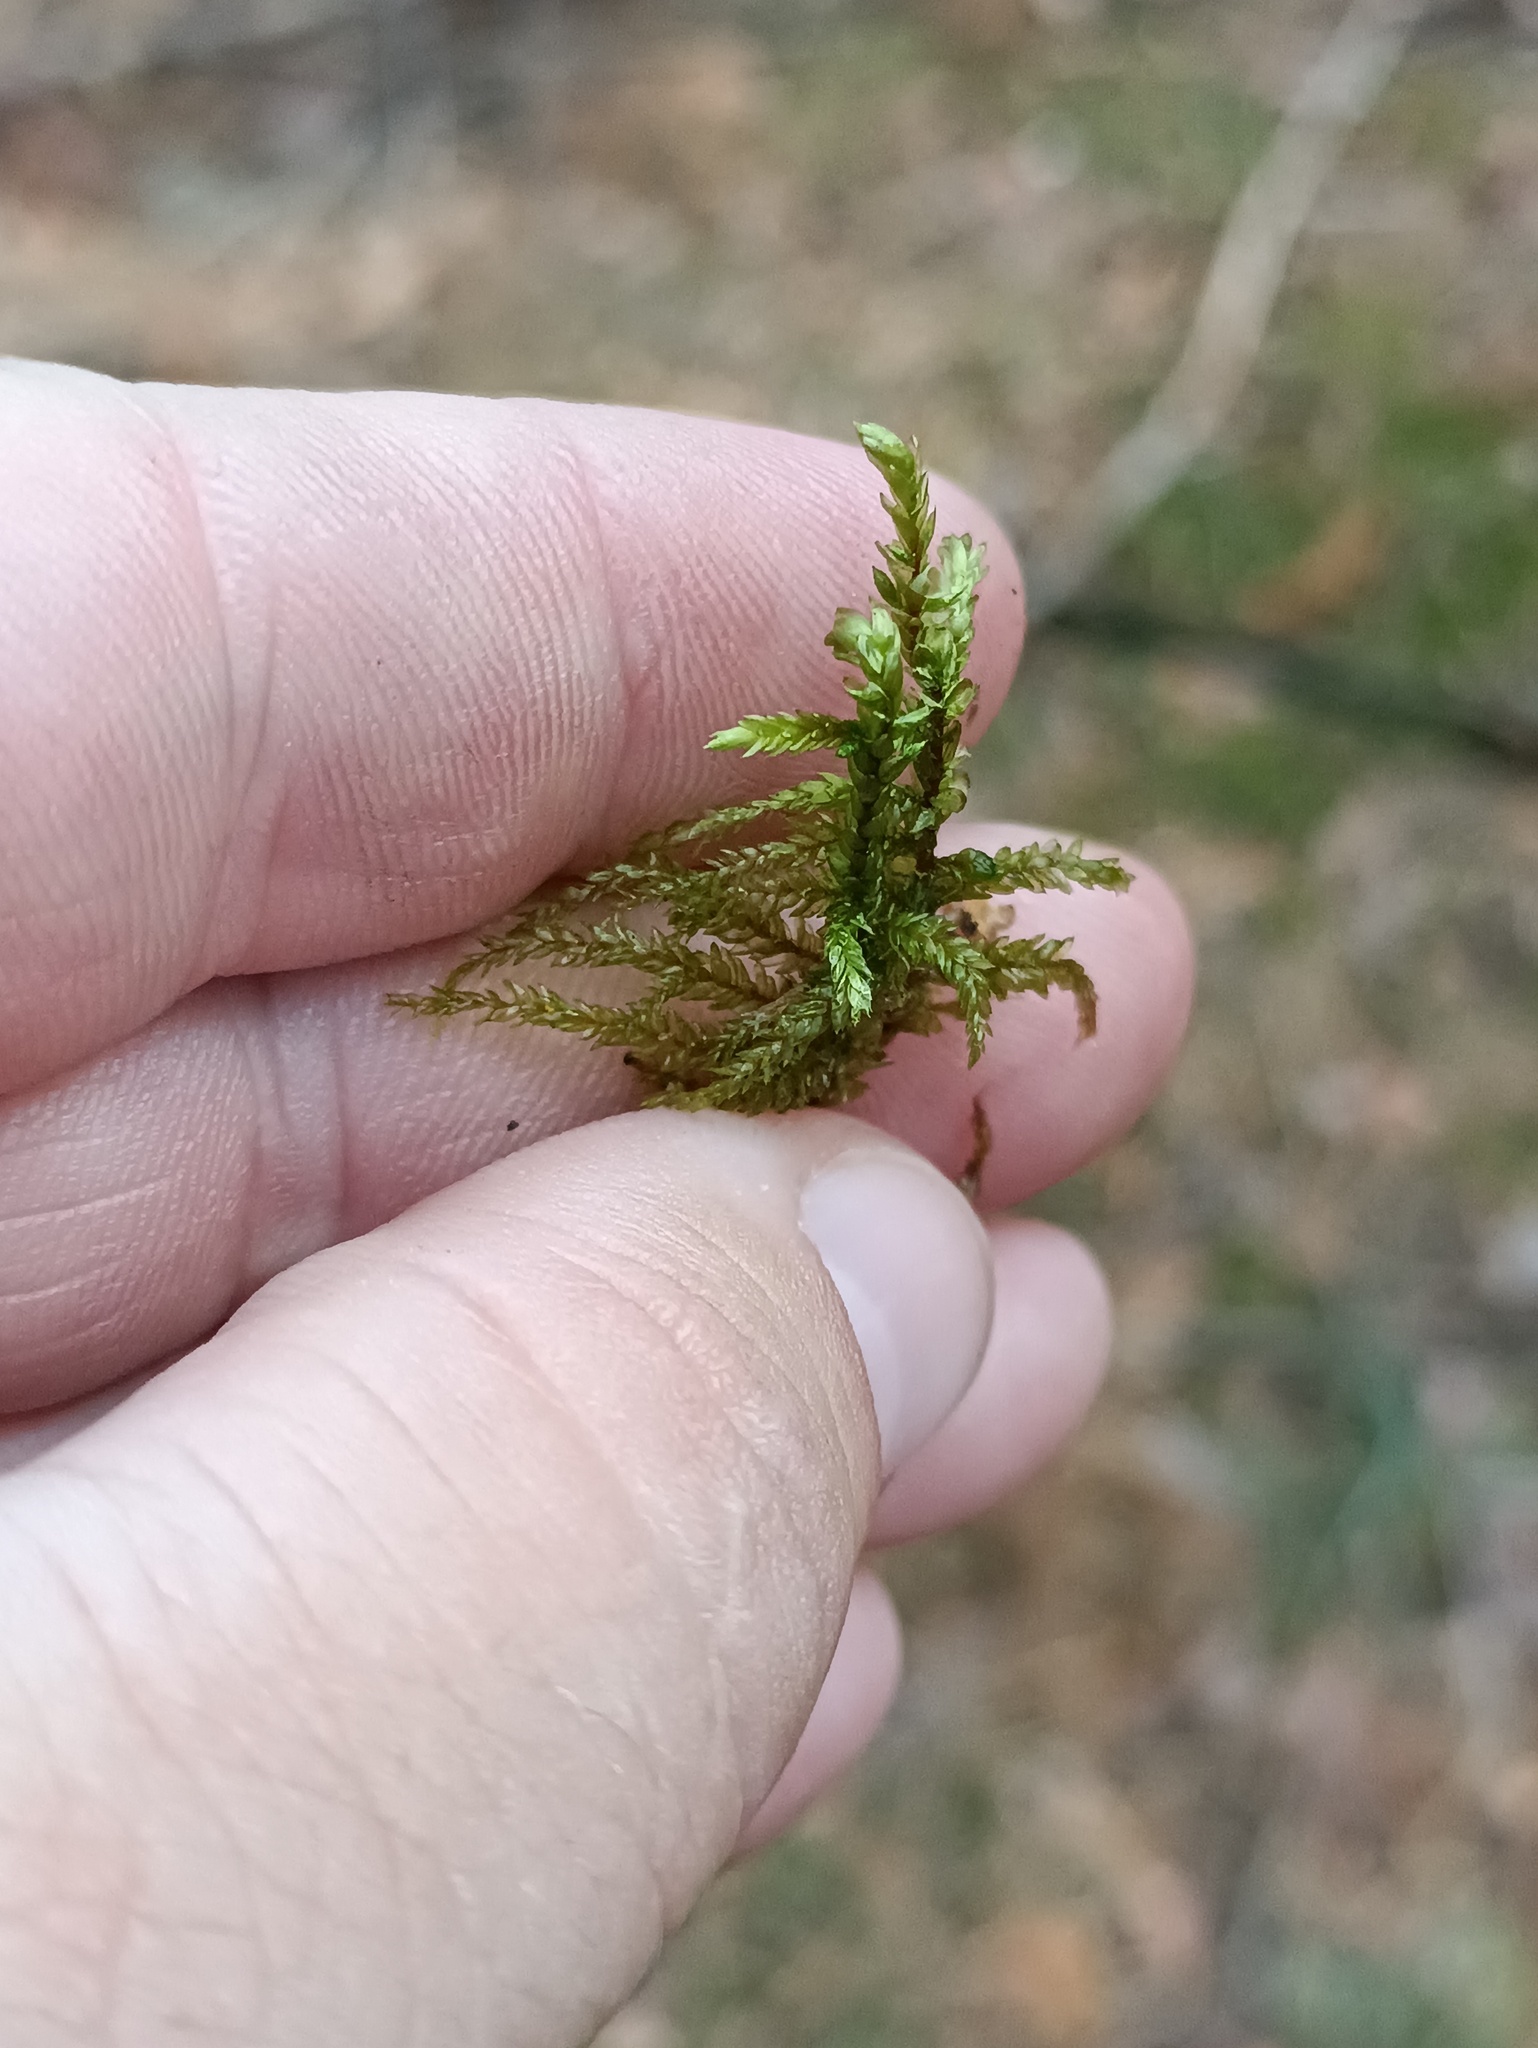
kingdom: Plantae
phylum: Bryophyta
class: Bryopsida
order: Hypnales
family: Hylocomiaceae
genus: Pleurozium
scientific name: Pleurozium schreberi
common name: Red-stemmed feather moss
